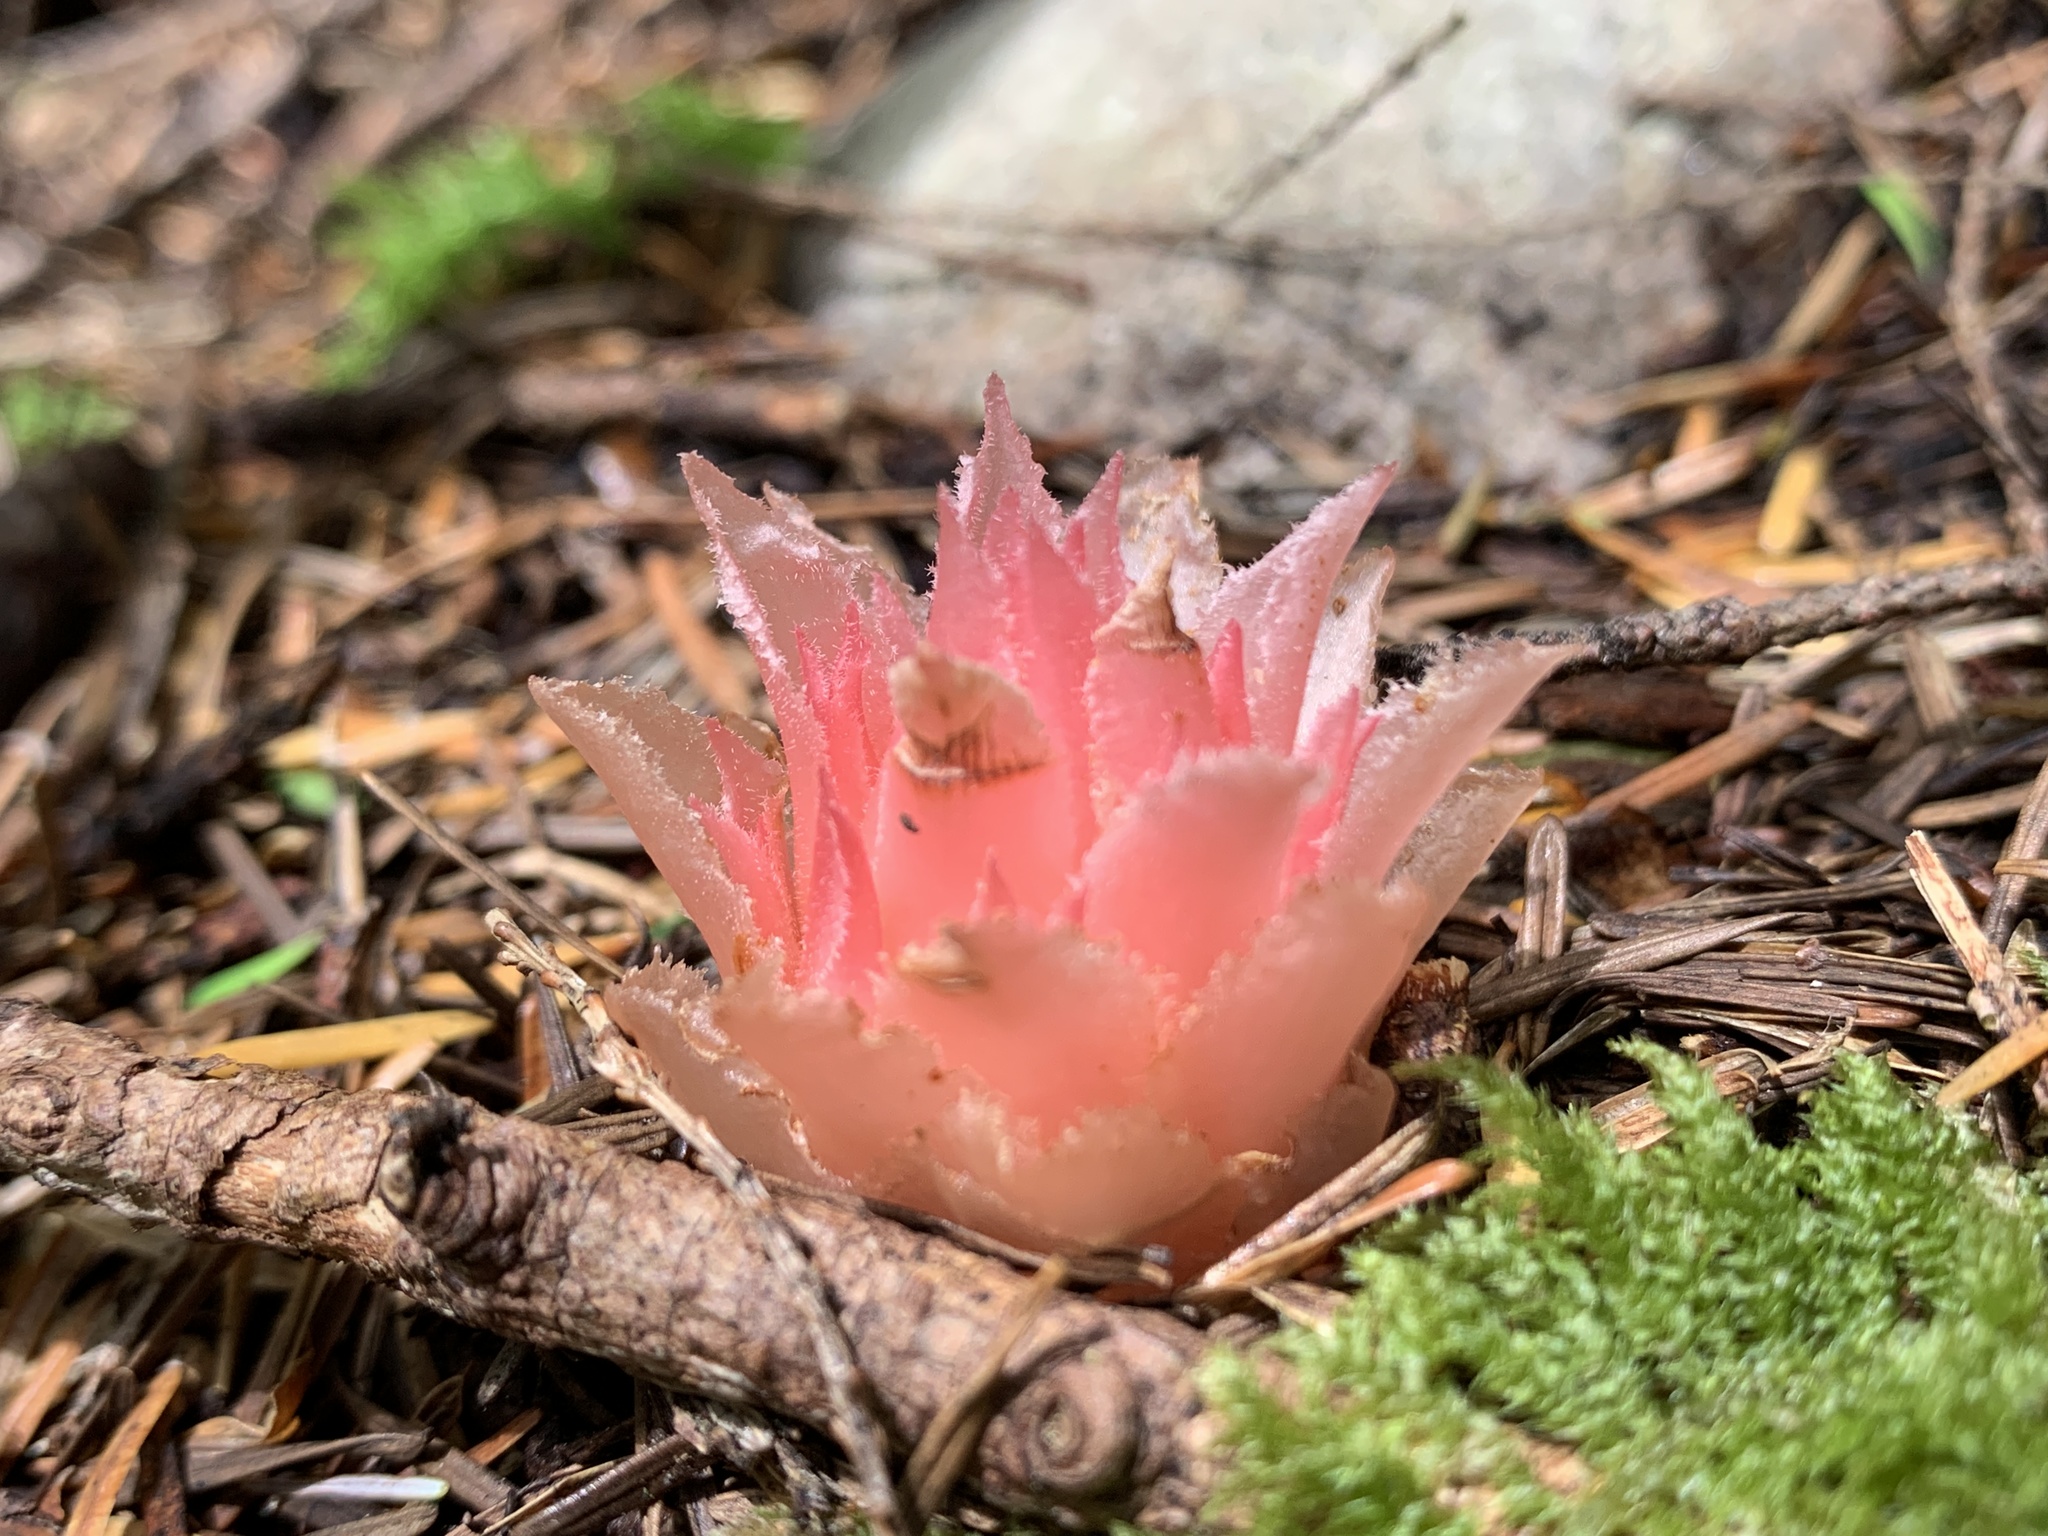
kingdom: Plantae
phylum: Tracheophyta
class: Magnoliopsida
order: Ericales
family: Ericaceae
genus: Hemitomes
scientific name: Hemitomes congestum
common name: Cone plant
